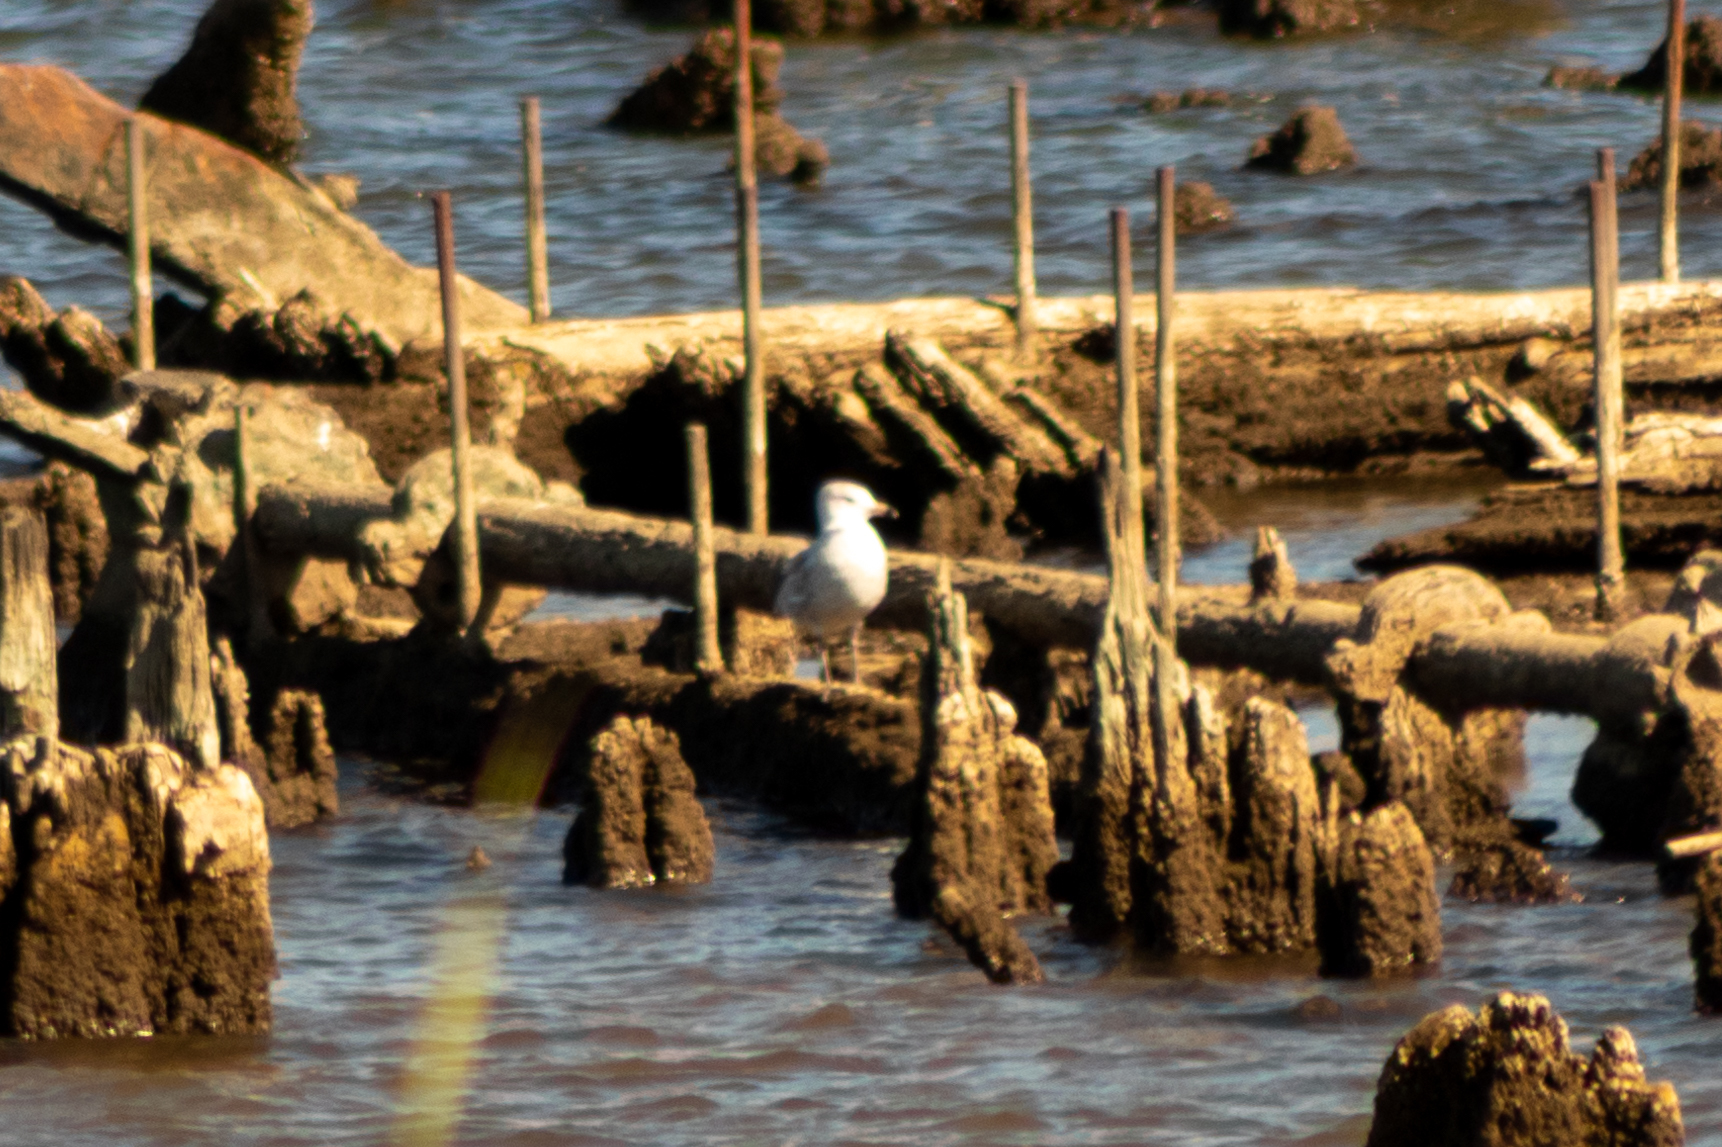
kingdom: Animalia
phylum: Chordata
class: Aves
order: Charadriiformes
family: Laridae
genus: Larus
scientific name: Larus delawarensis
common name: Ring-billed gull
